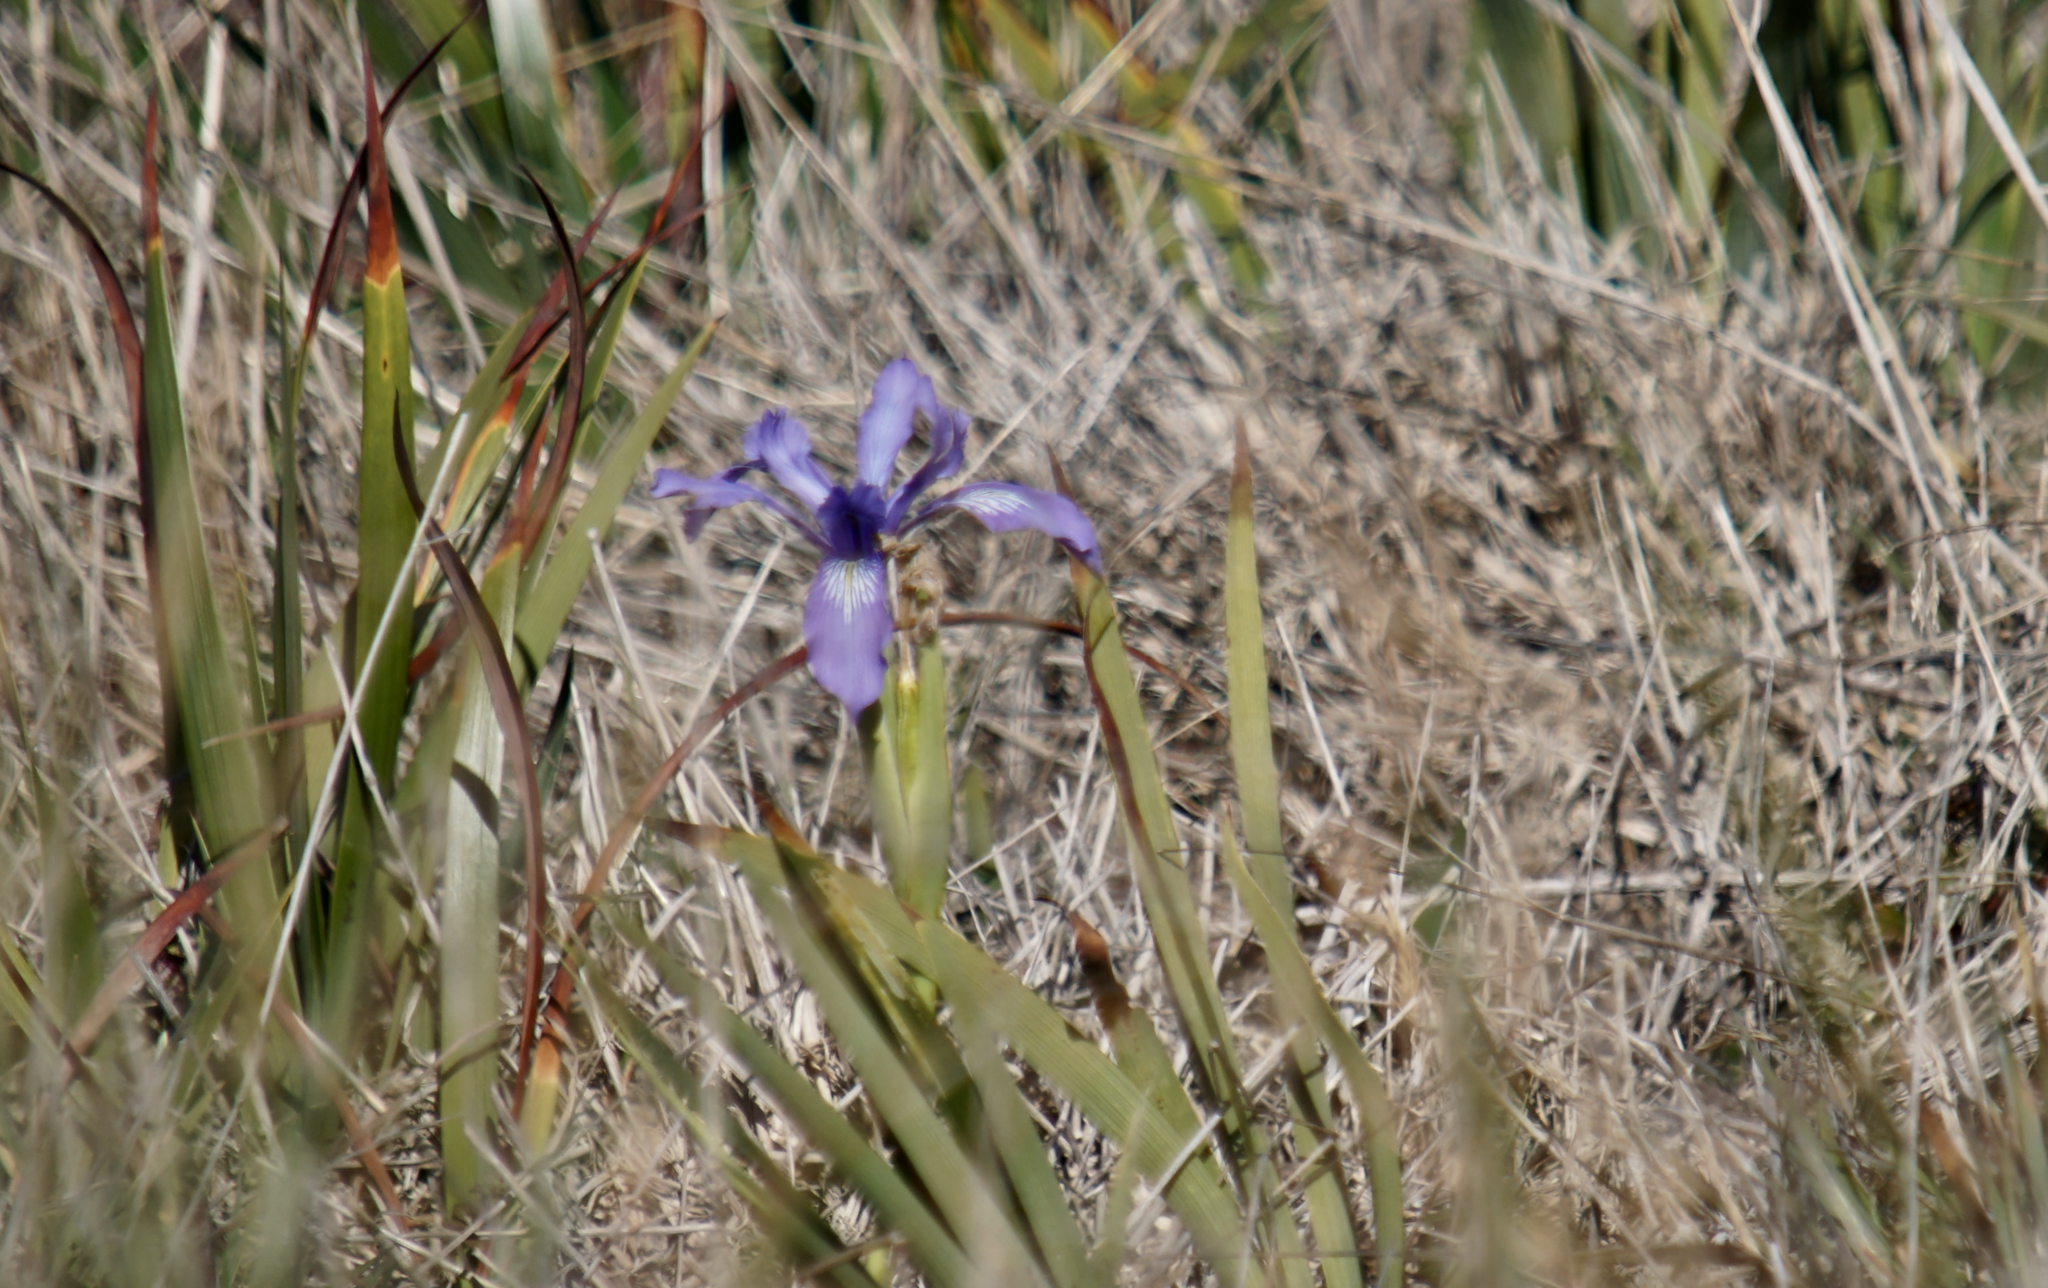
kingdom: Plantae
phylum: Tracheophyta
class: Liliopsida
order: Asparagales
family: Iridaceae
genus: Iris
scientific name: Iris douglasiana
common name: Marin iris
